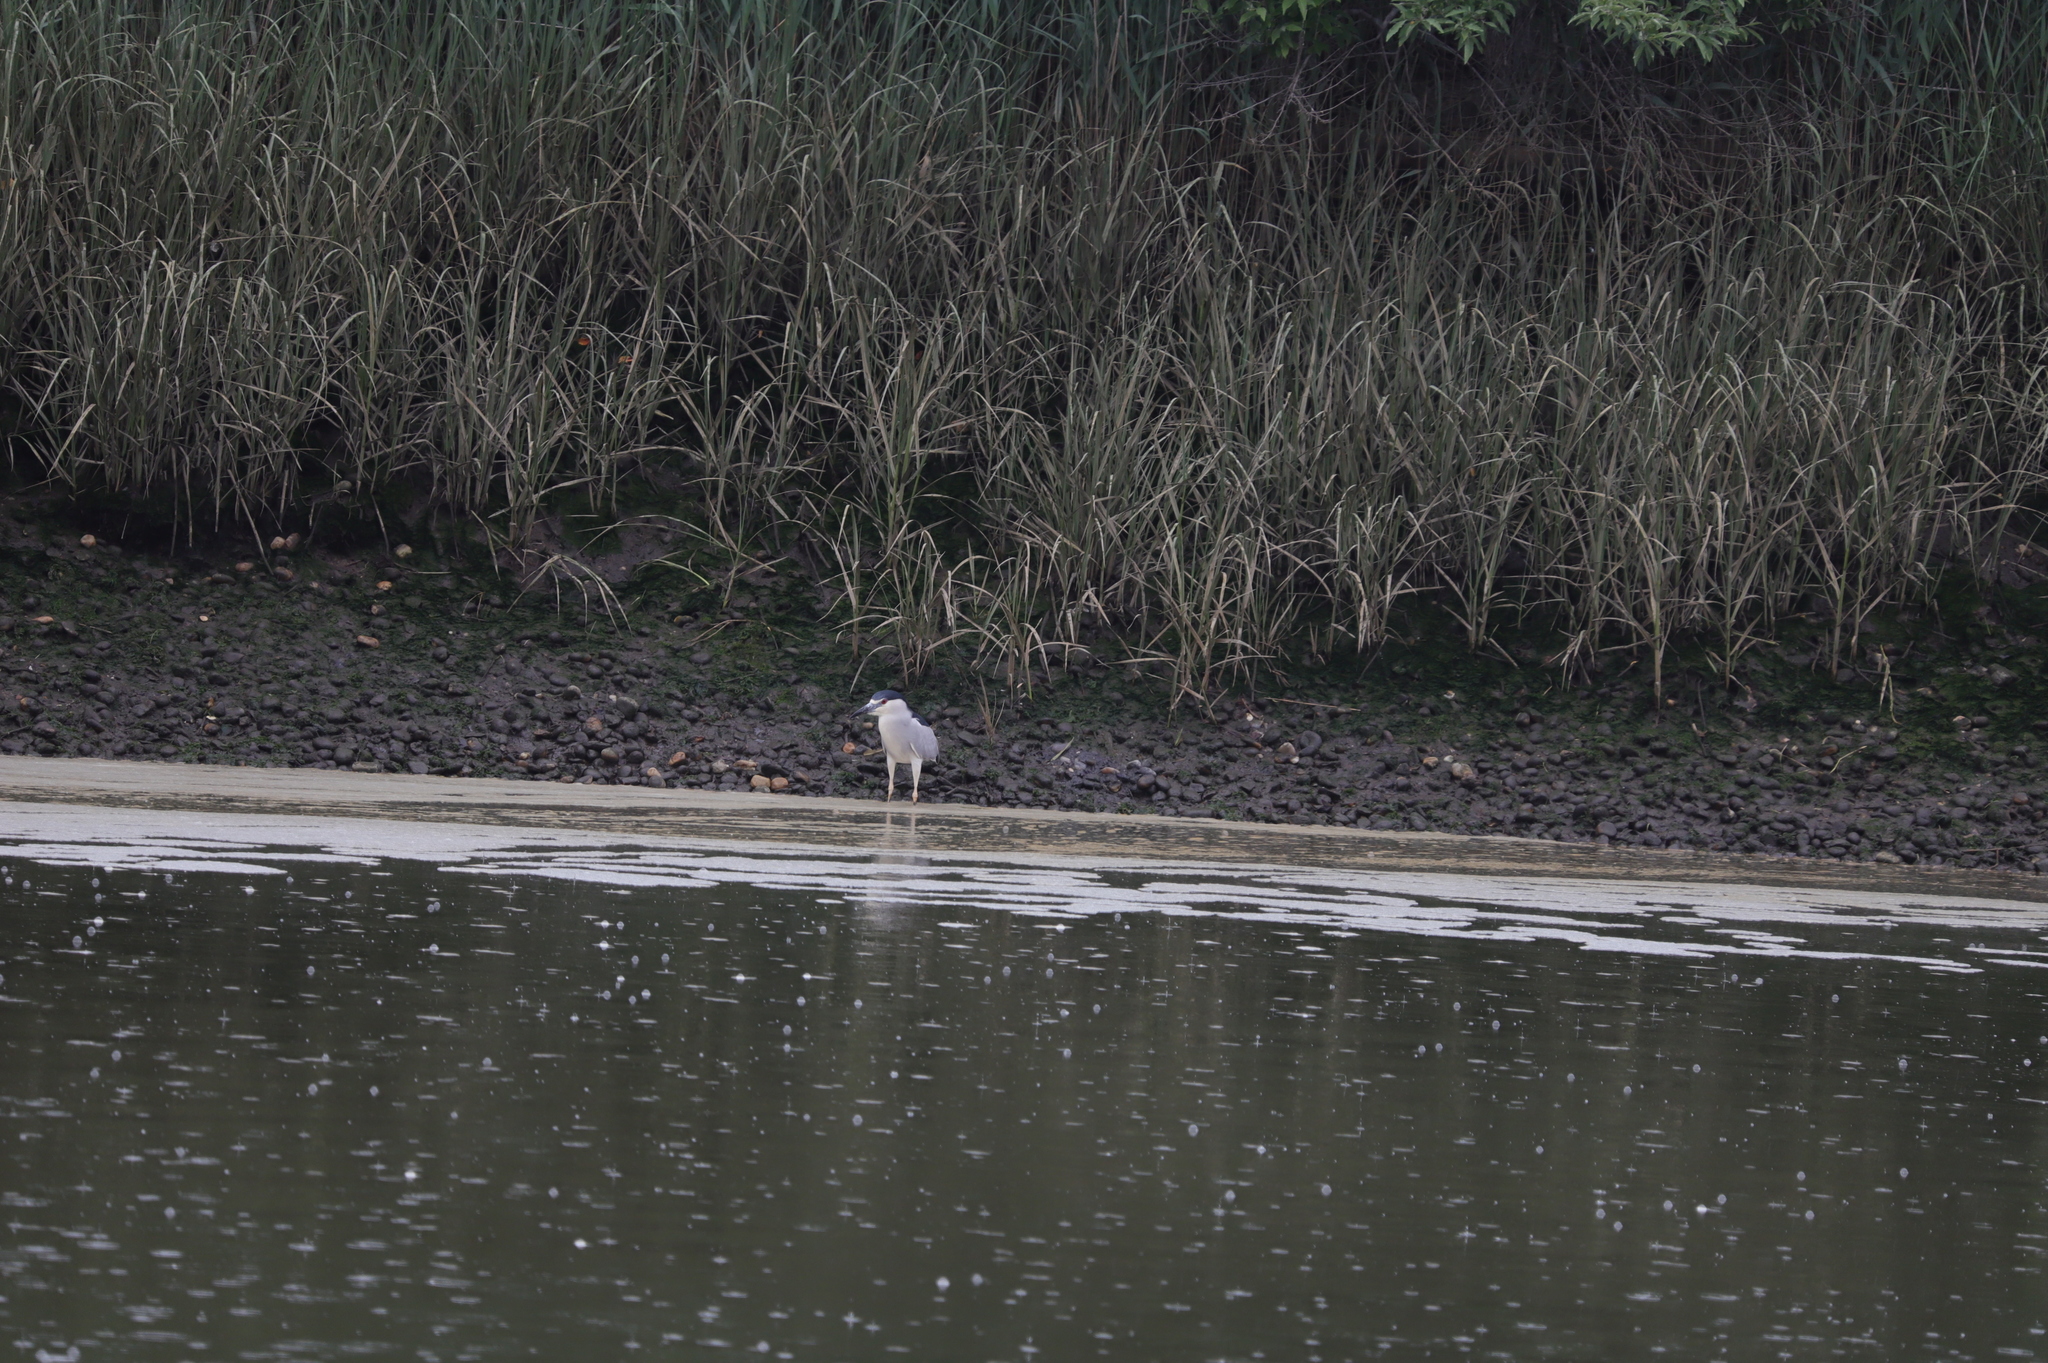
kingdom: Animalia
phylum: Chordata
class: Aves
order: Pelecaniformes
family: Ardeidae
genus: Nycticorax
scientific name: Nycticorax nycticorax
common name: Black-crowned night heron
